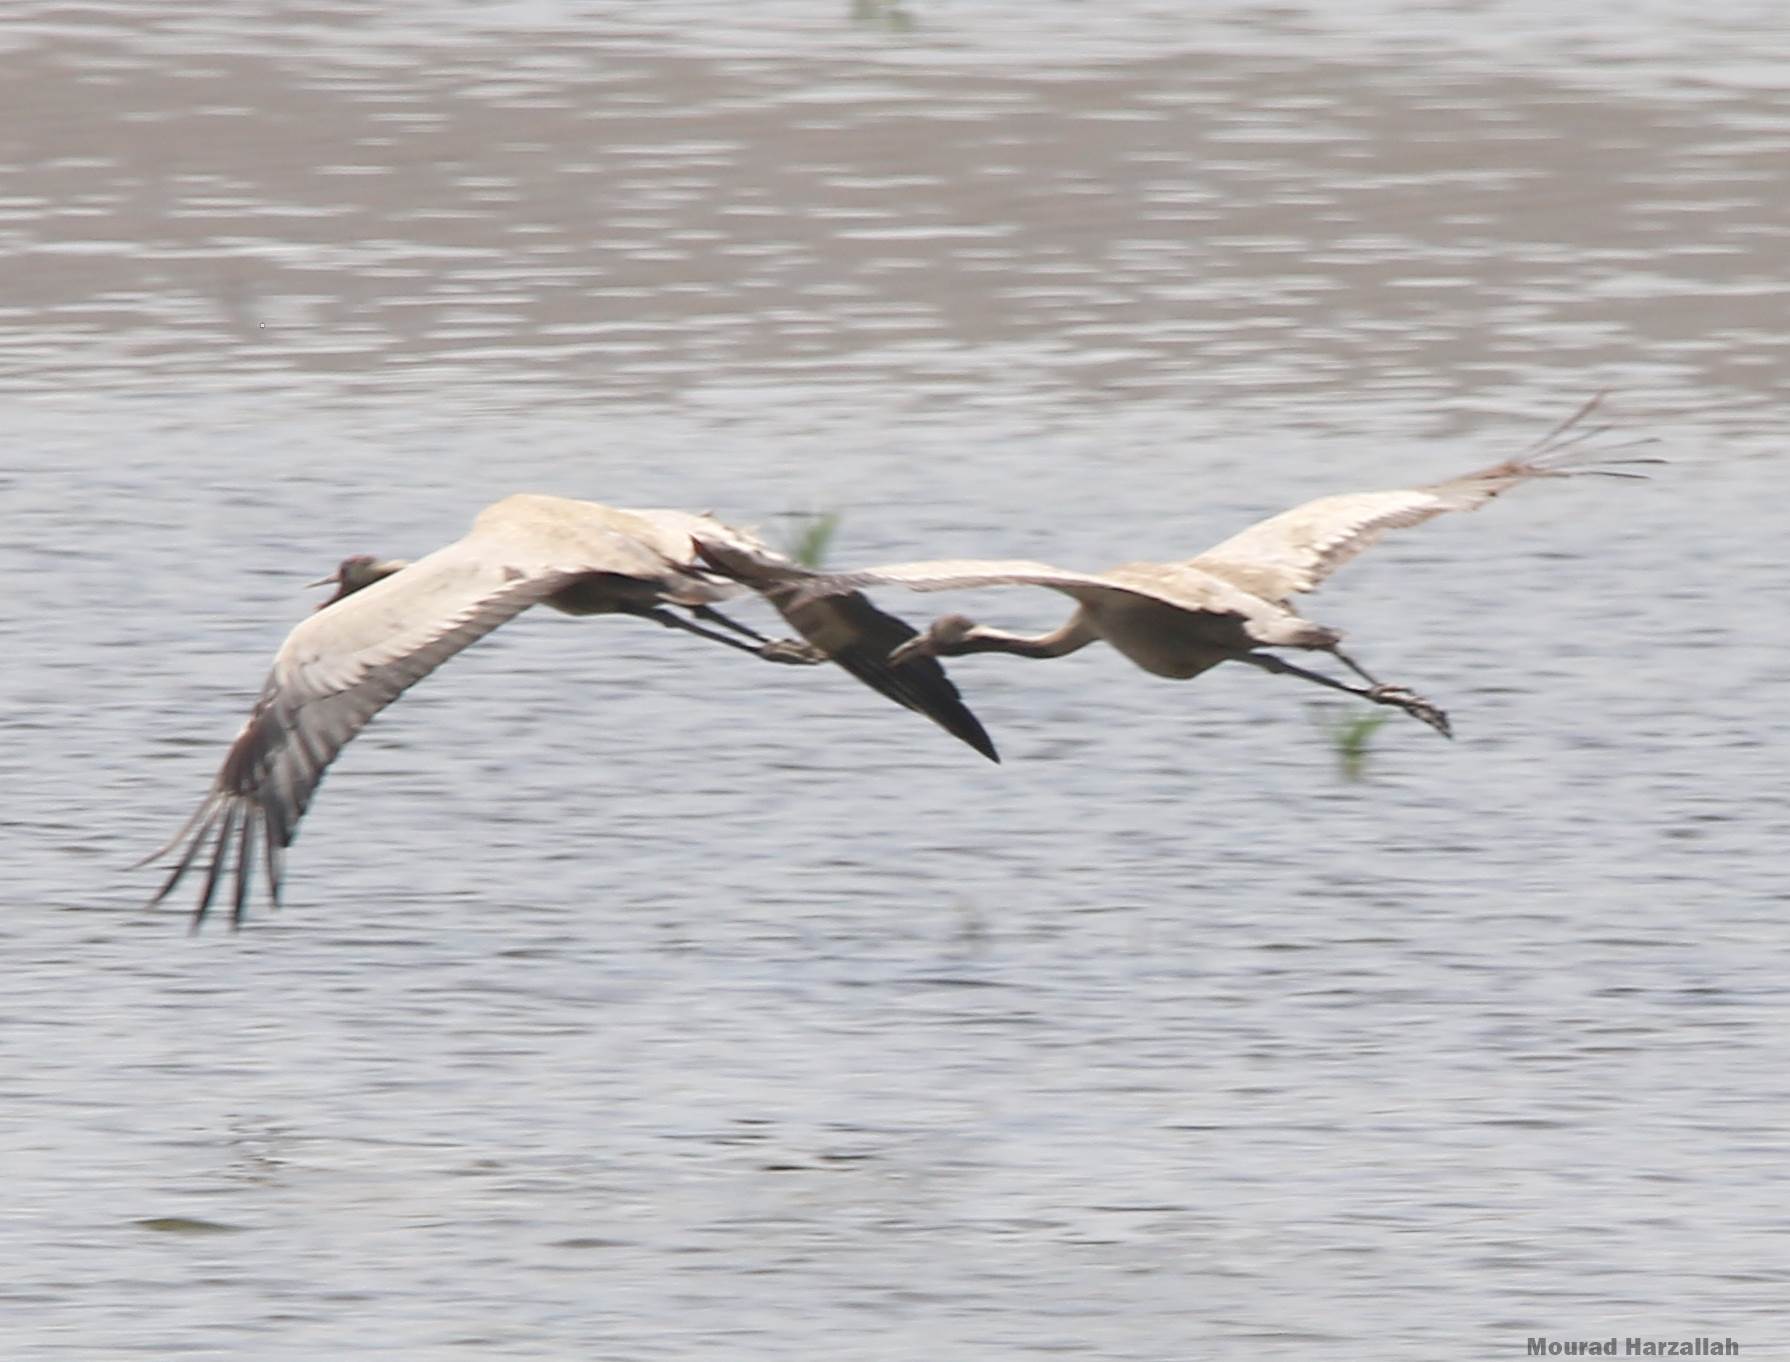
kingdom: Animalia
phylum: Chordata
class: Aves
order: Gruiformes
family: Gruidae
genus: Grus
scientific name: Grus grus
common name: Common crane
